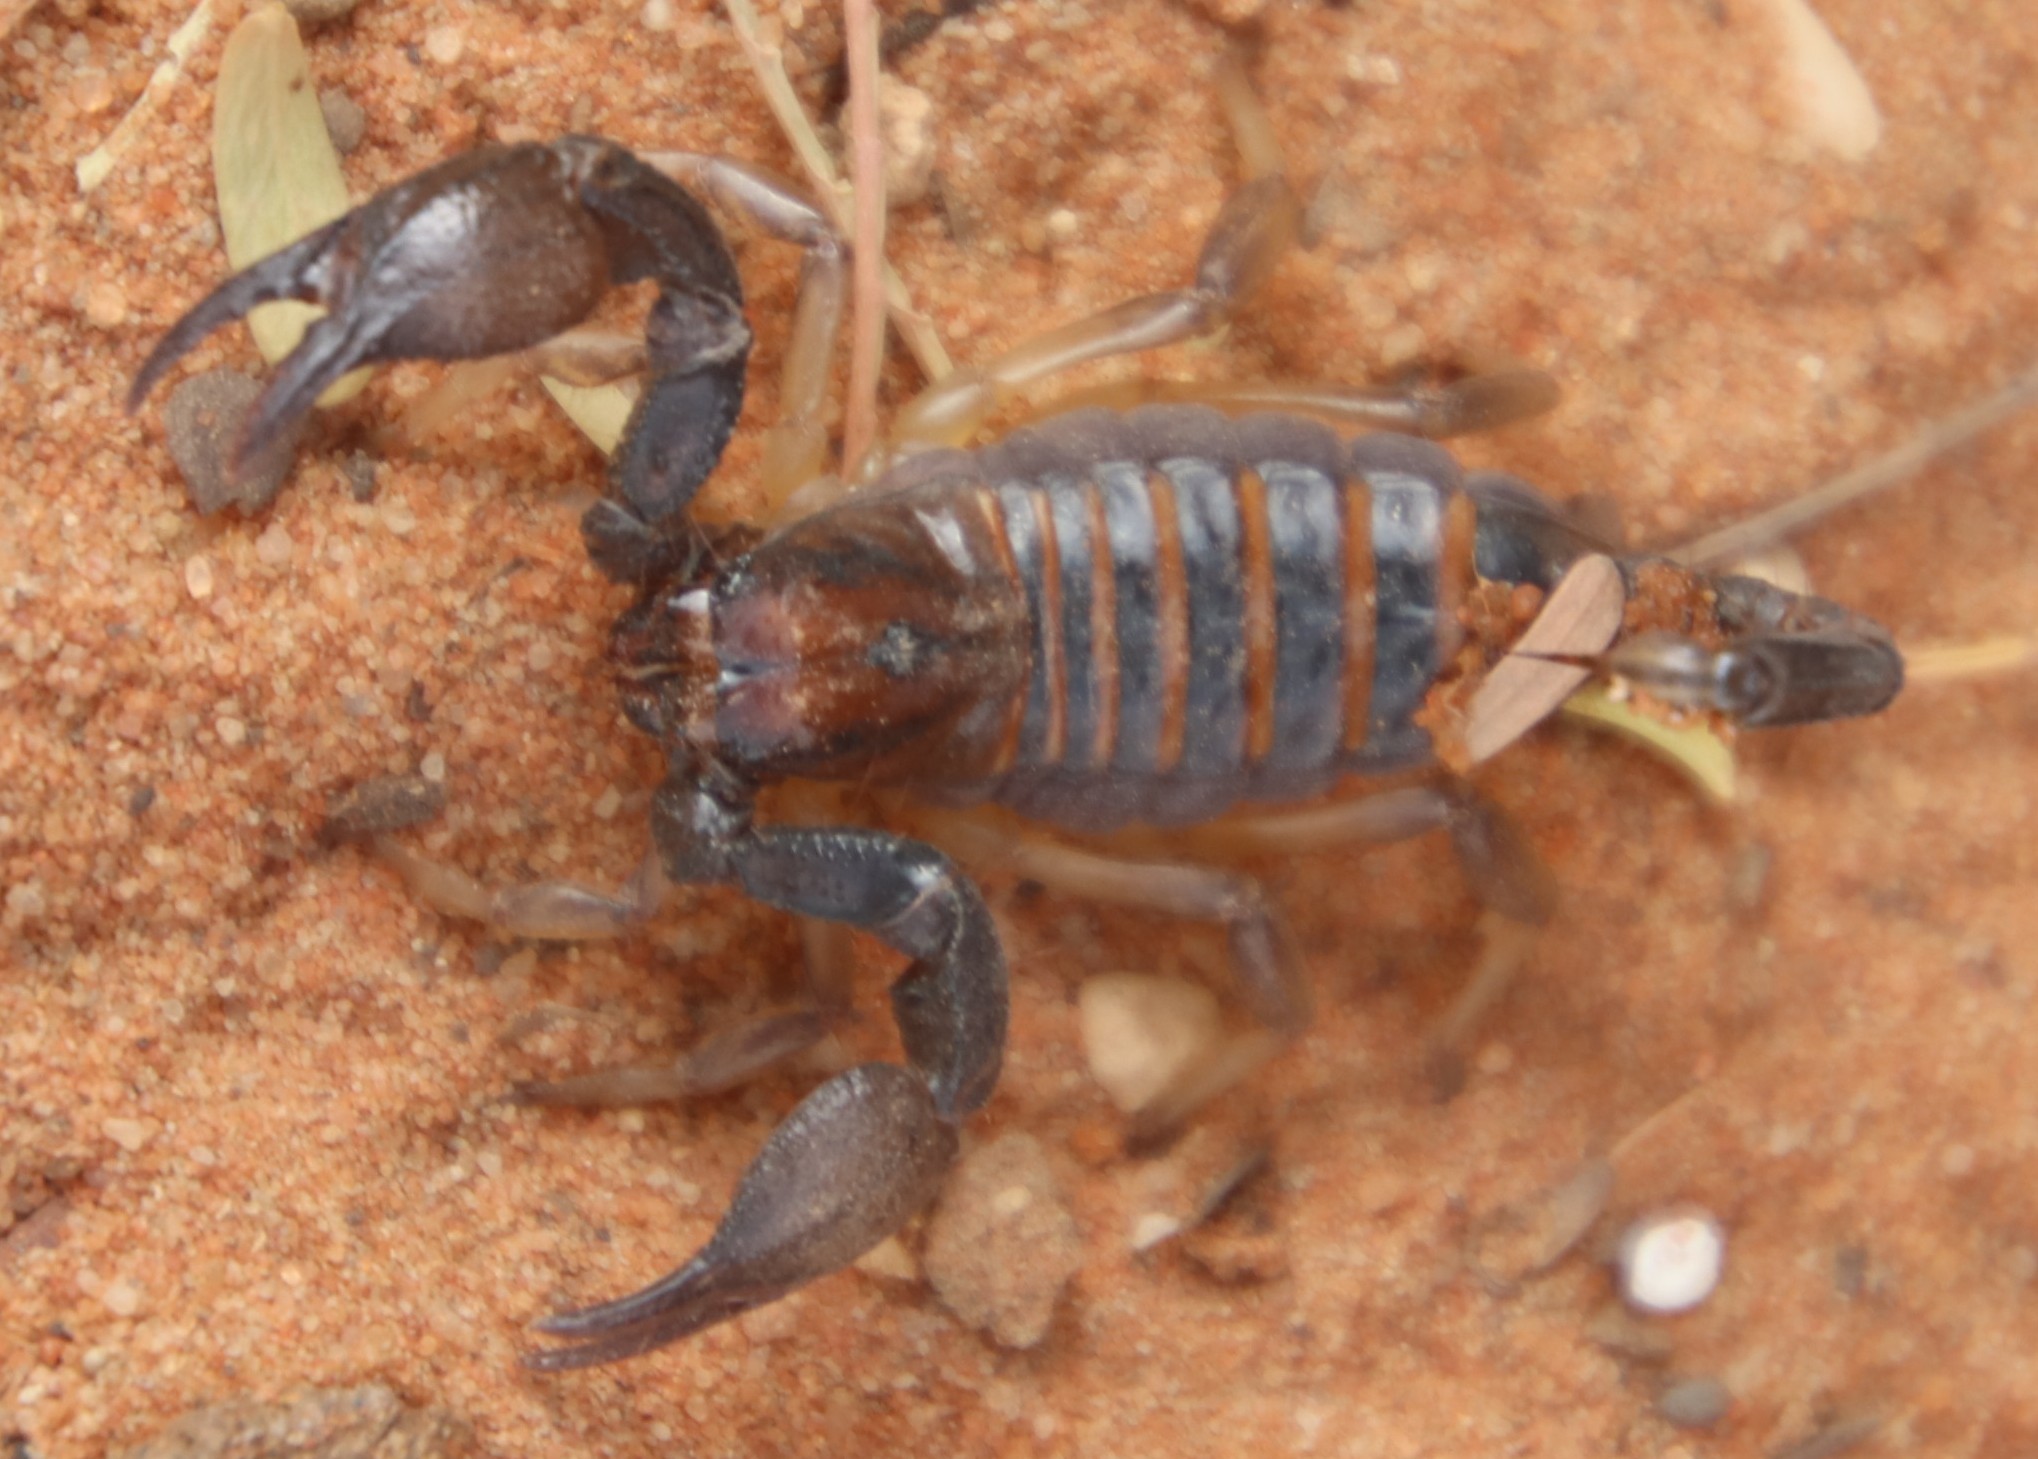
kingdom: Animalia
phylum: Arthropoda
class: Arachnida
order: Scorpiones
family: Scorpionidae
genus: Opistophthalmus
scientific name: Opistophthalmus carinatus
